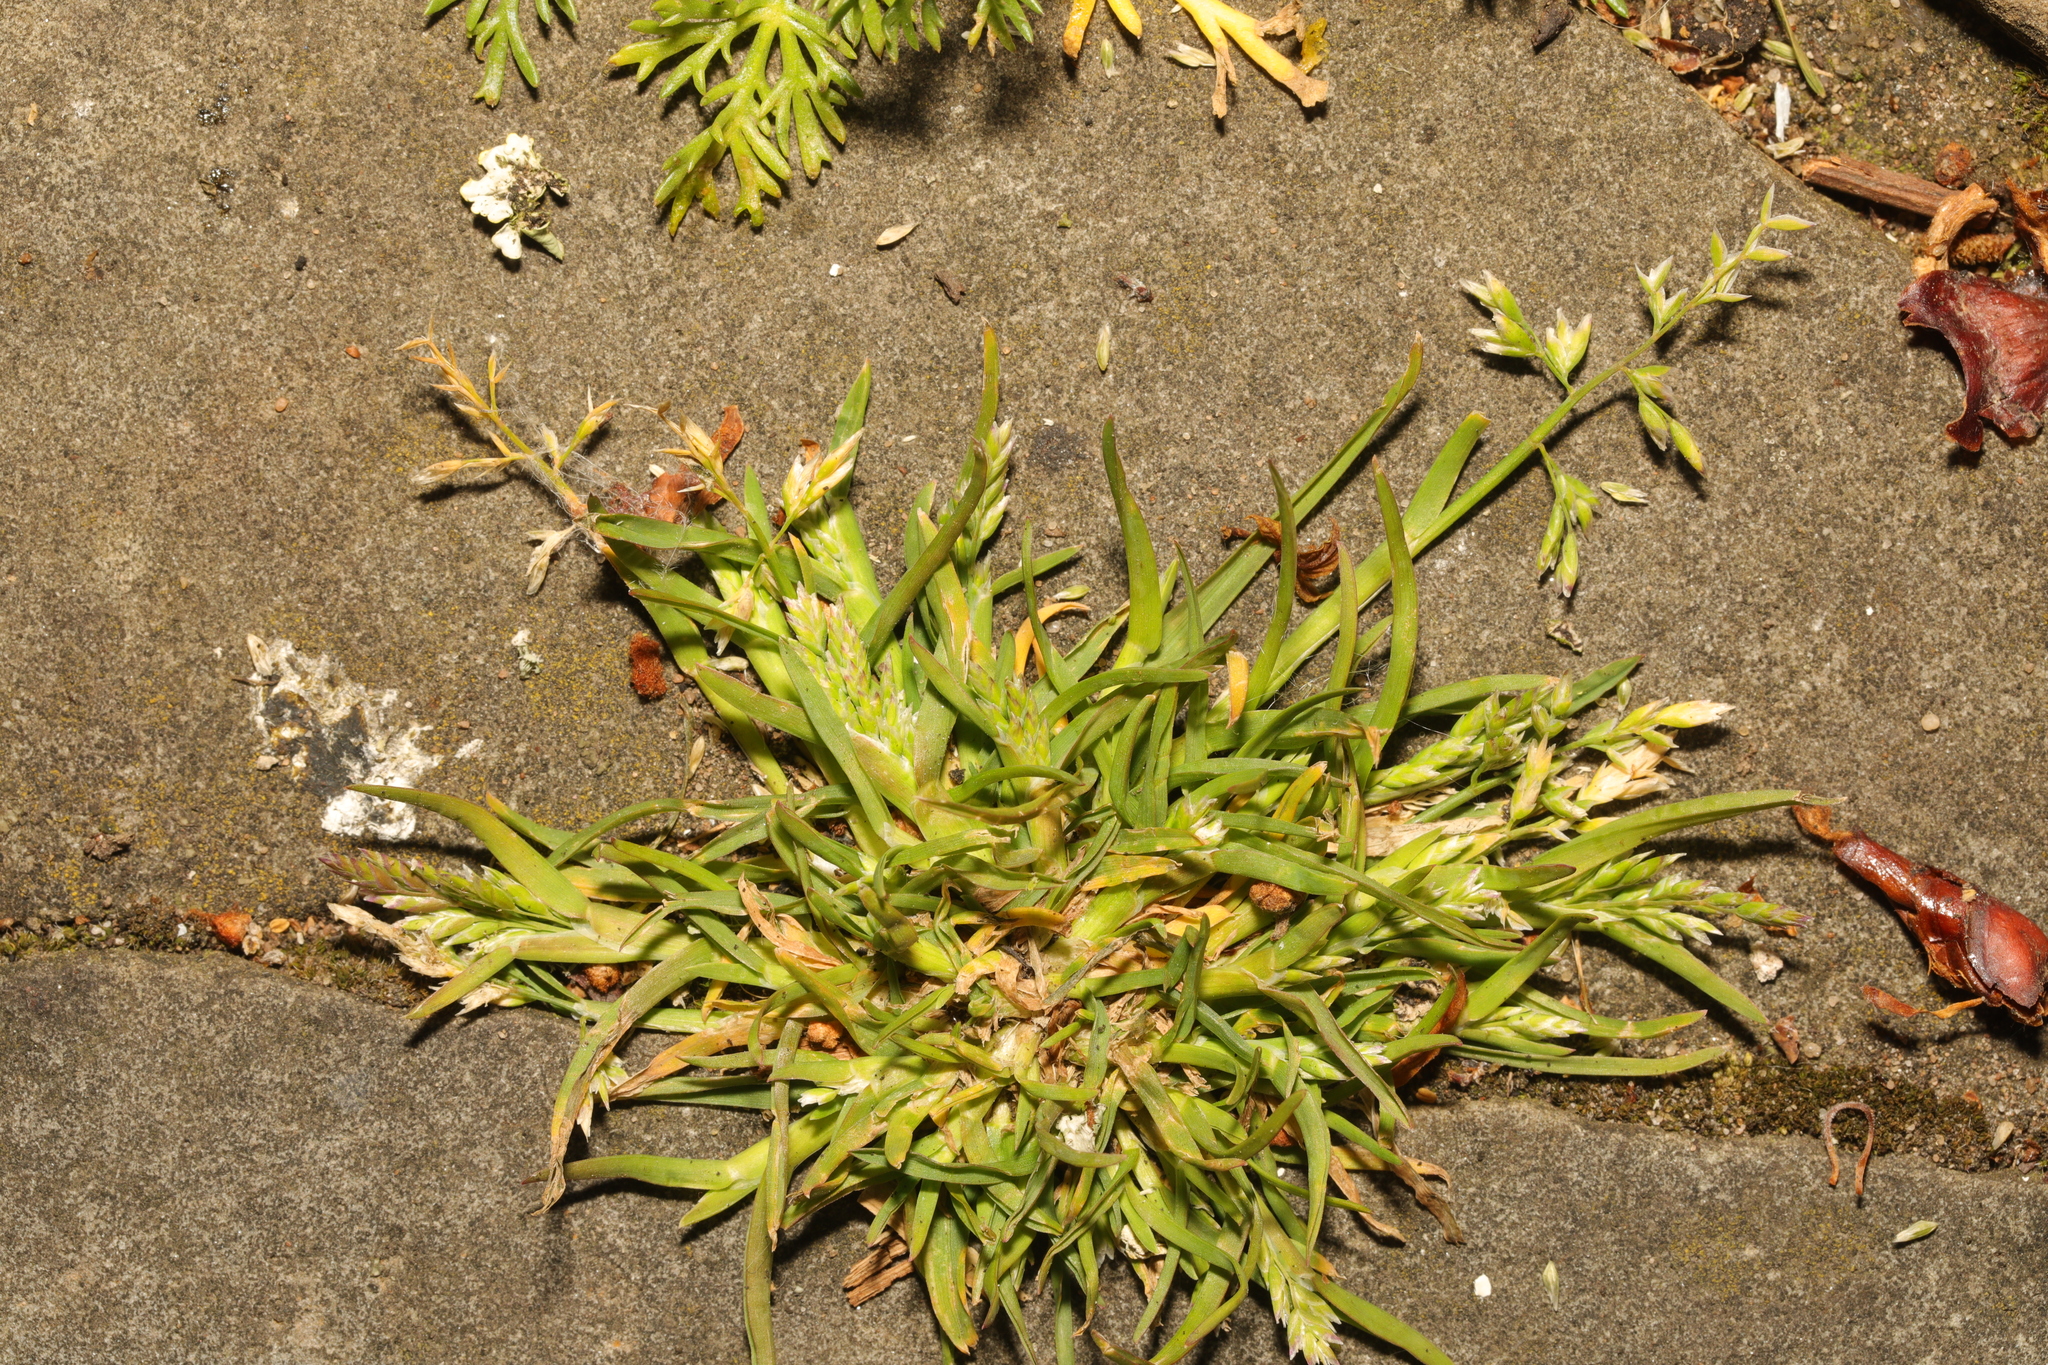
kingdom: Plantae
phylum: Tracheophyta
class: Liliopsida
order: Poales
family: Poaceae
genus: Poa
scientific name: Poa annua
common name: Annual bluegrass
